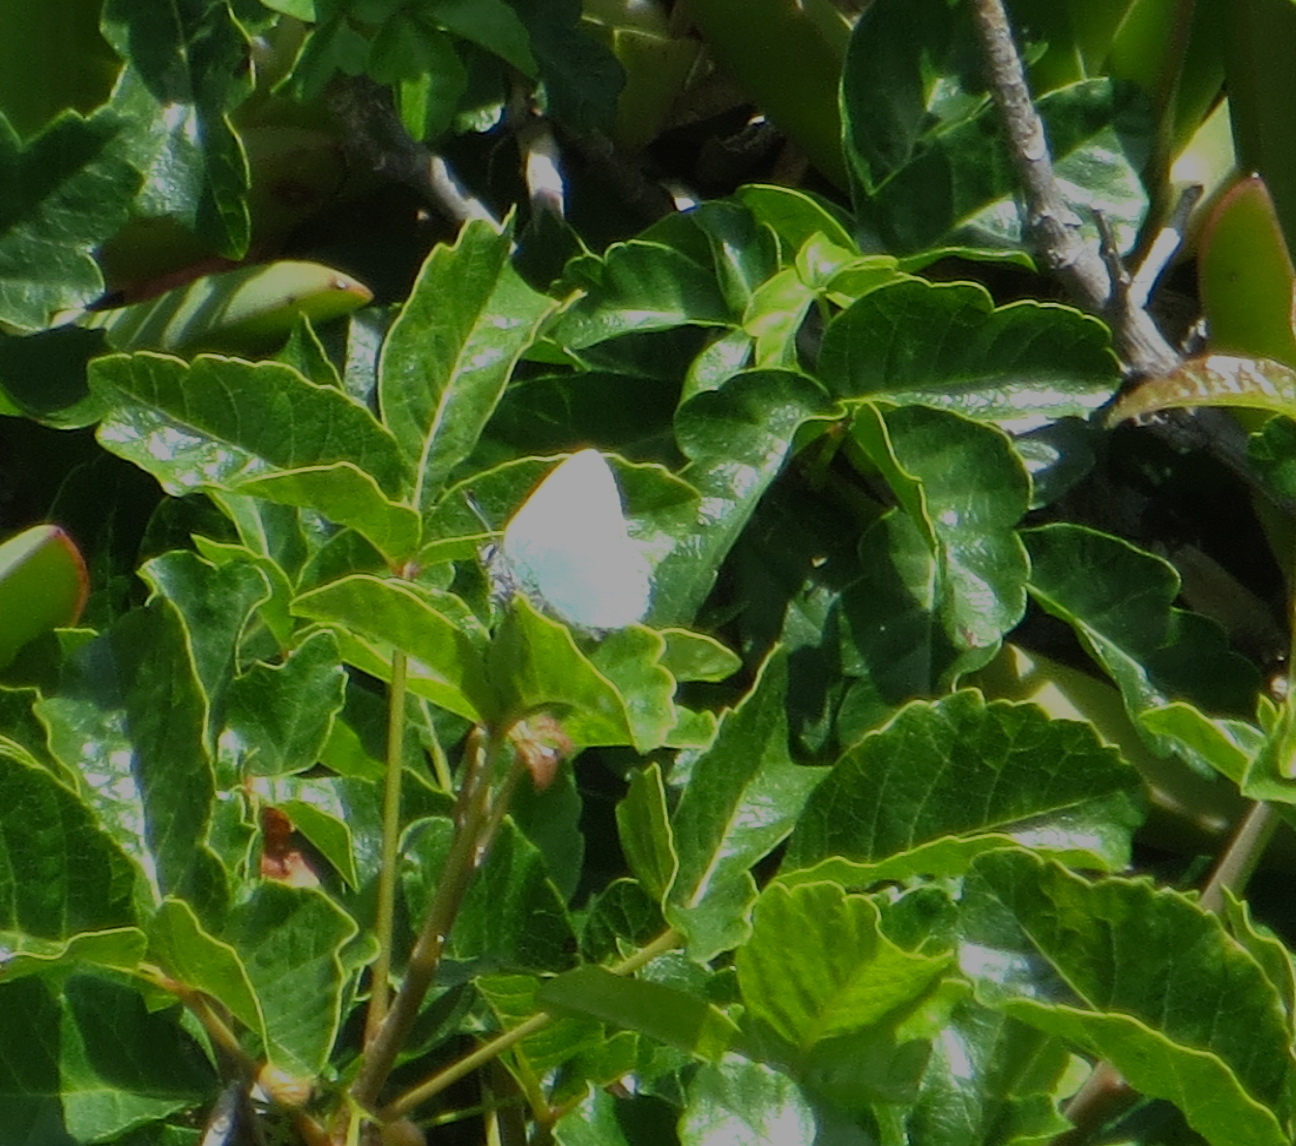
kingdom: Animalia
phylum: Arthropoda
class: Insecta
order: Lepidoptera
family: Lycaenidae
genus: Callophrys
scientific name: Callophrys dumetorum
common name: Bramble hairstreak
